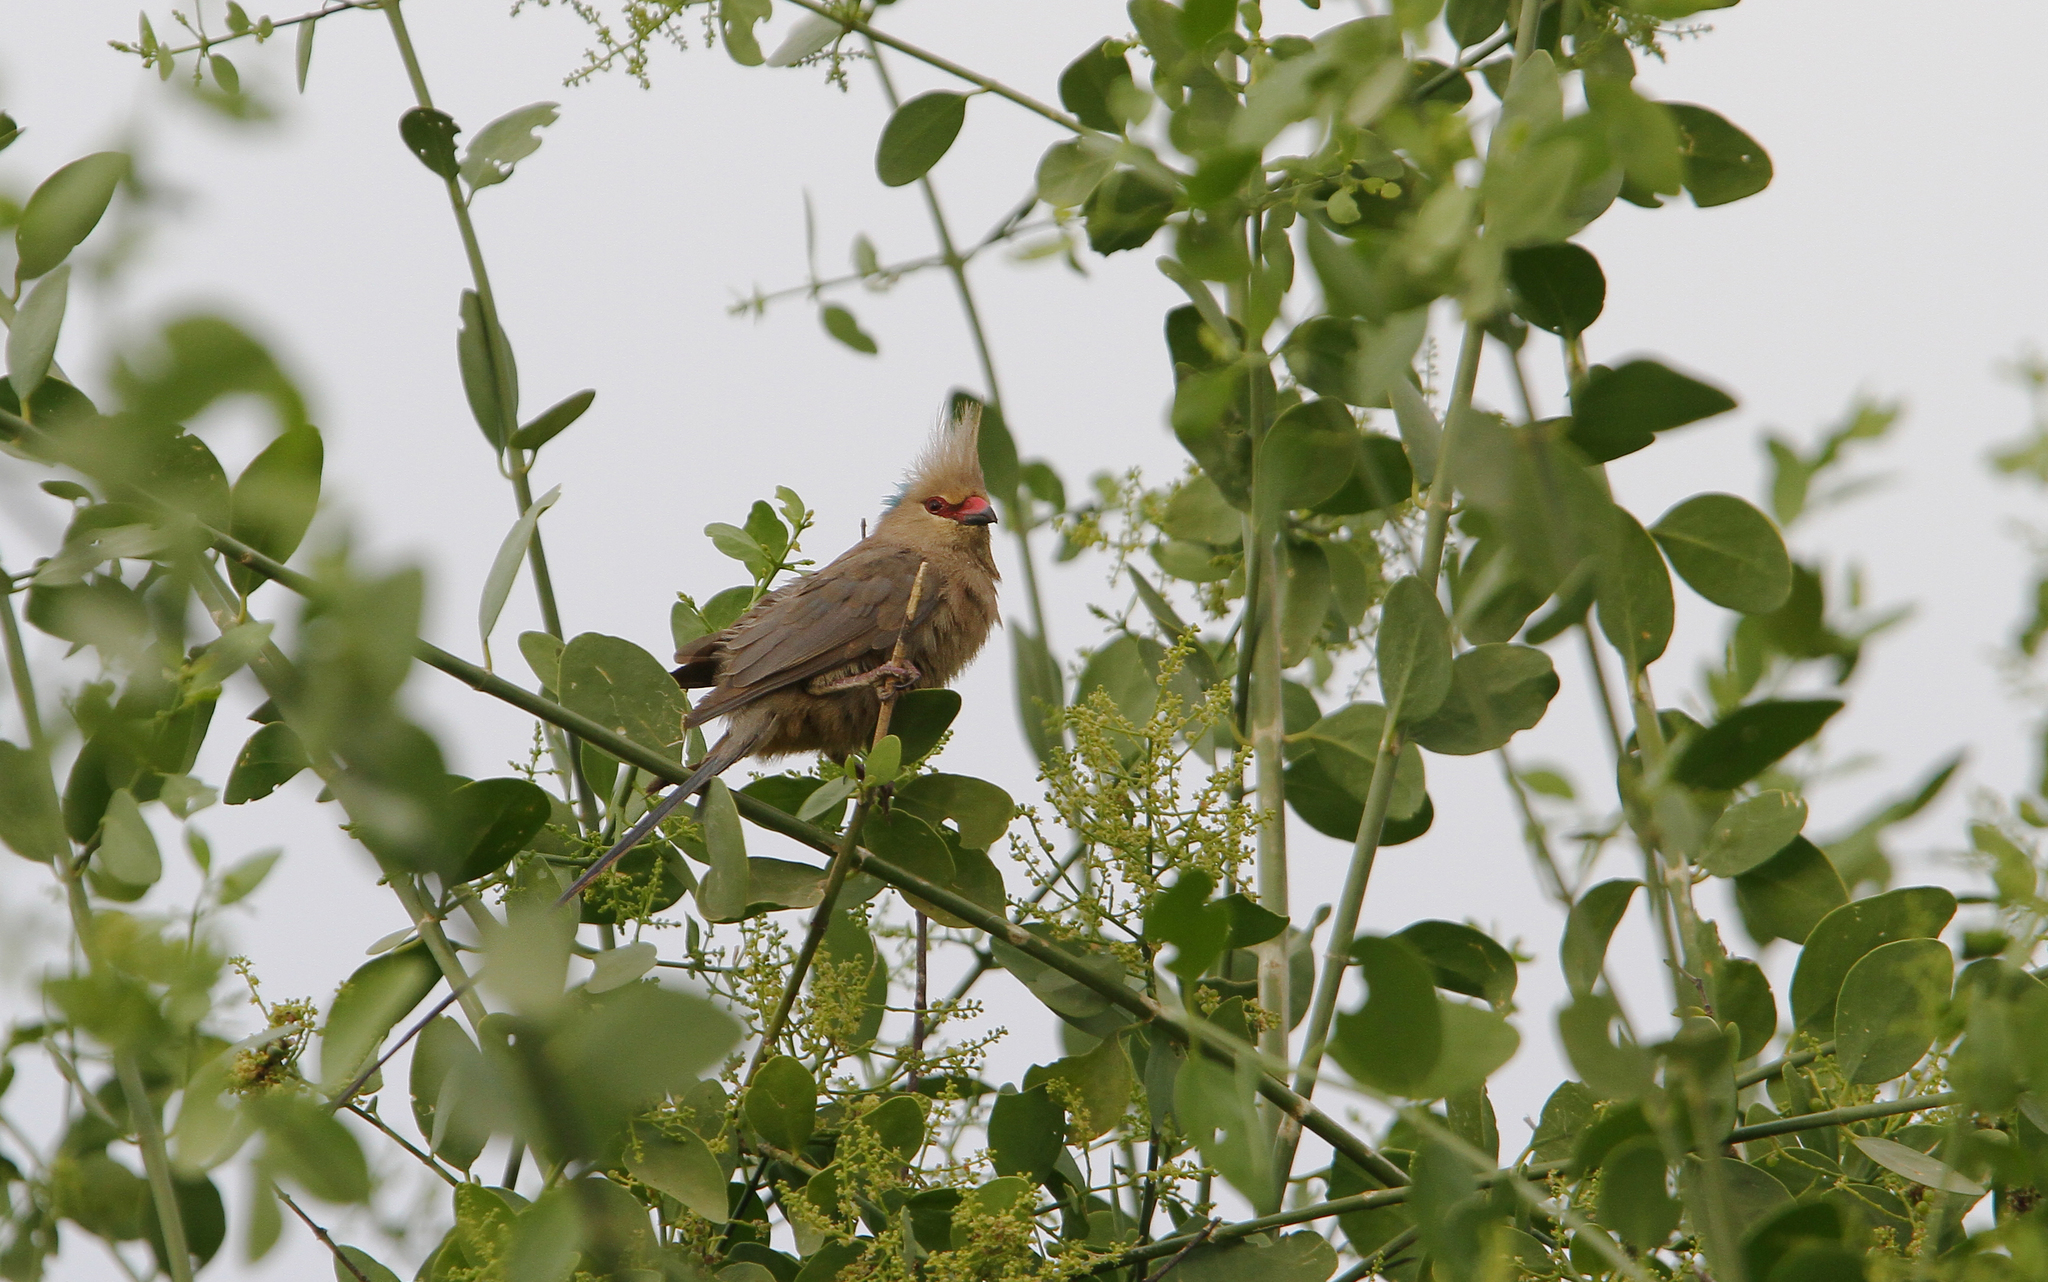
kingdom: Animalia
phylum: Chordata
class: Aves
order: Coliiformes
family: Coliidae
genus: Urocolius
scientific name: Urocolius macrourus
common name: Blue-naped mousebird
